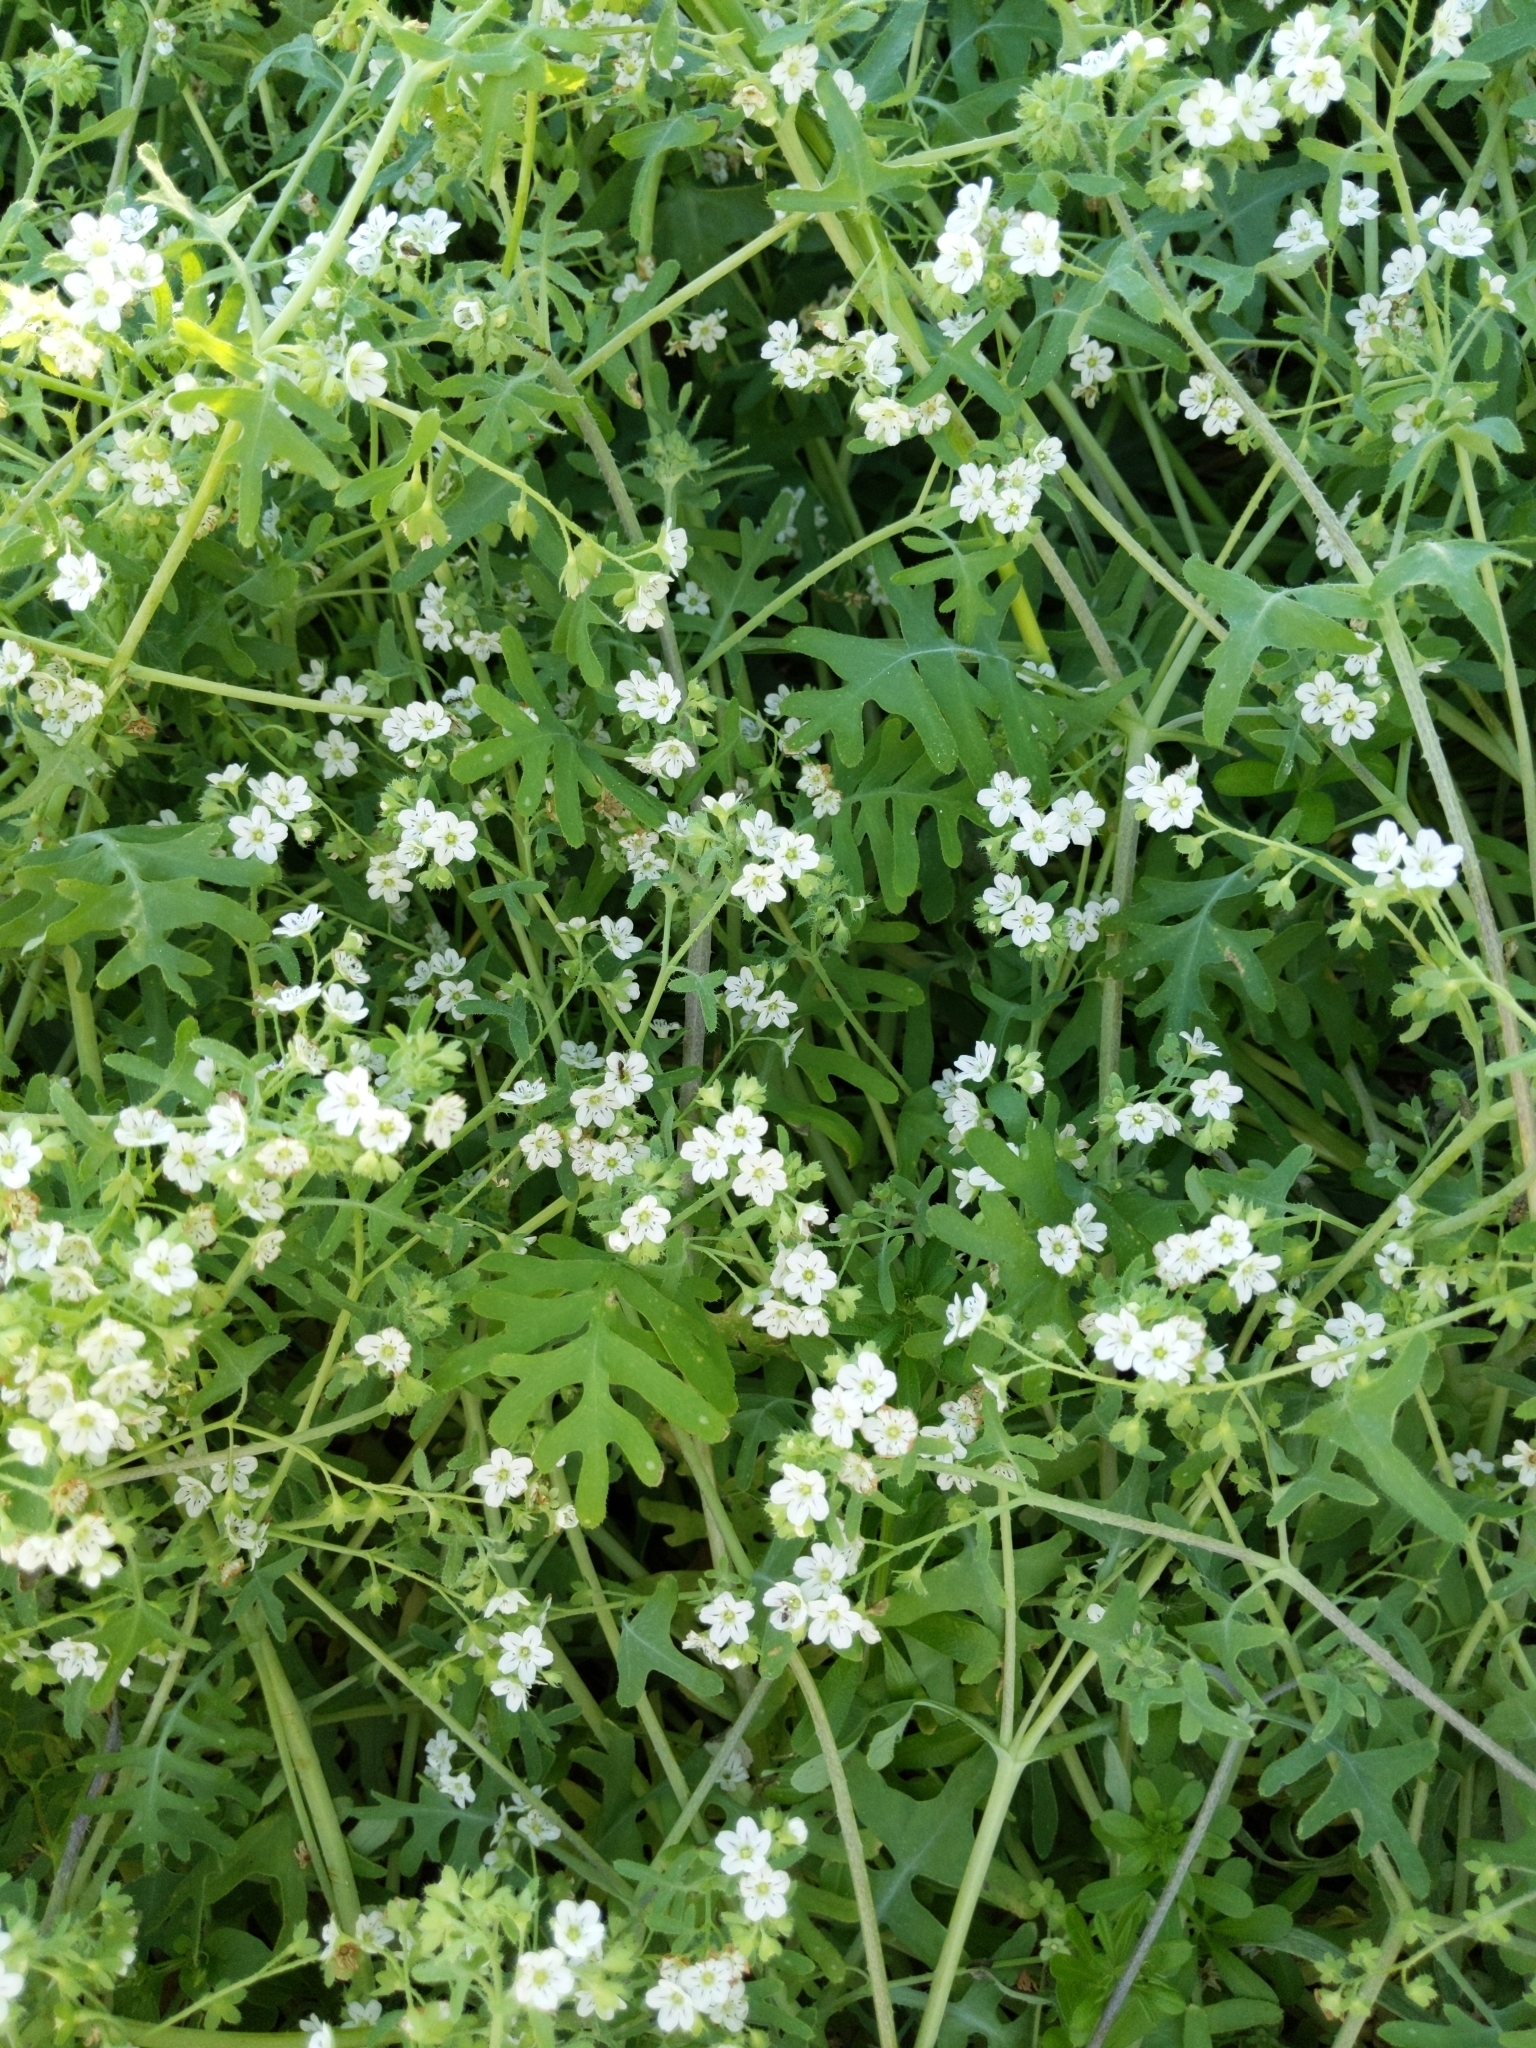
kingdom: Plantae
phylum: Tracheophyta
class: Magnoliopsida
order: Boraginales
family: Hydrophyllaceae
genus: Pholistoma
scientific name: Pholistoma membranaceum
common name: White fiesta-flower
